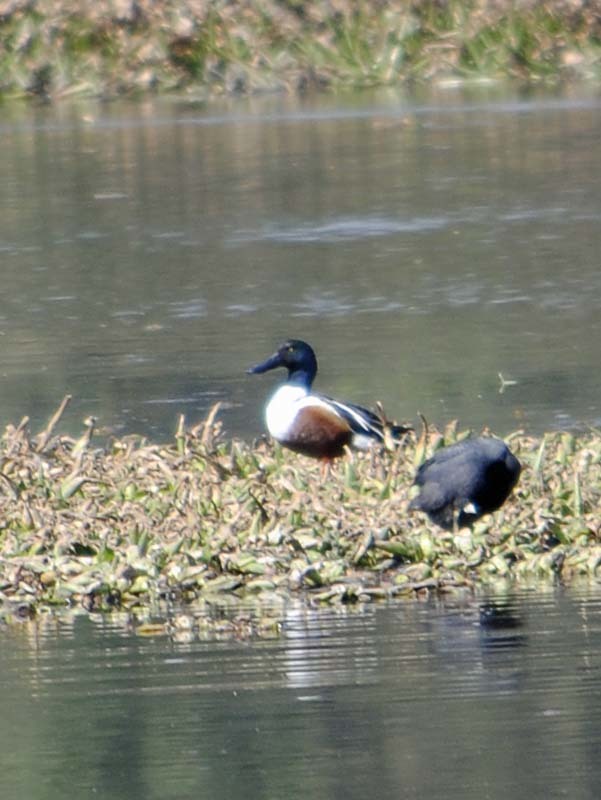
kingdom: Animalia
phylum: Chordata
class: Aves
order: Anseriformes
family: Anatidae
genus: Spatula
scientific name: Spatula clypeata
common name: Northern shoveler
